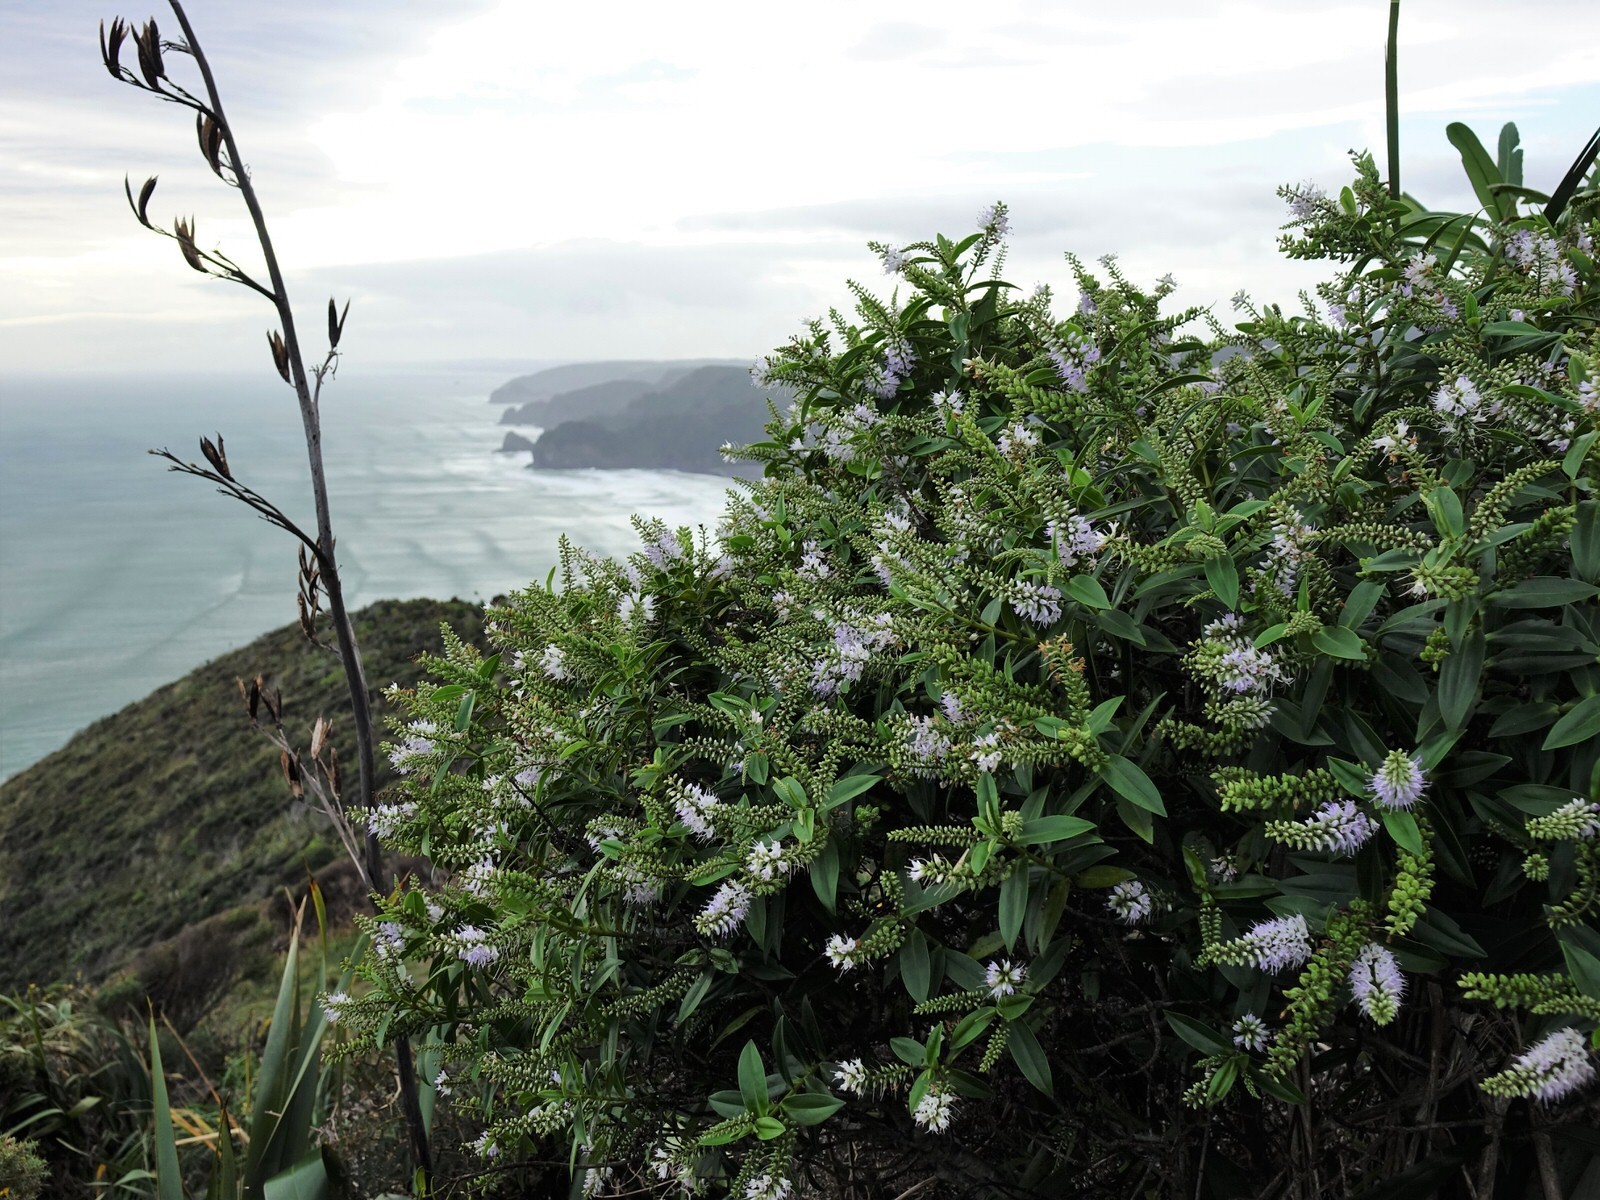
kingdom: Plantae
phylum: Tracheophyta
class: Magnoliopsida
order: Lamiales
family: Plantaginaceae
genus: Veronica
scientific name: Veronica macrocarpa
